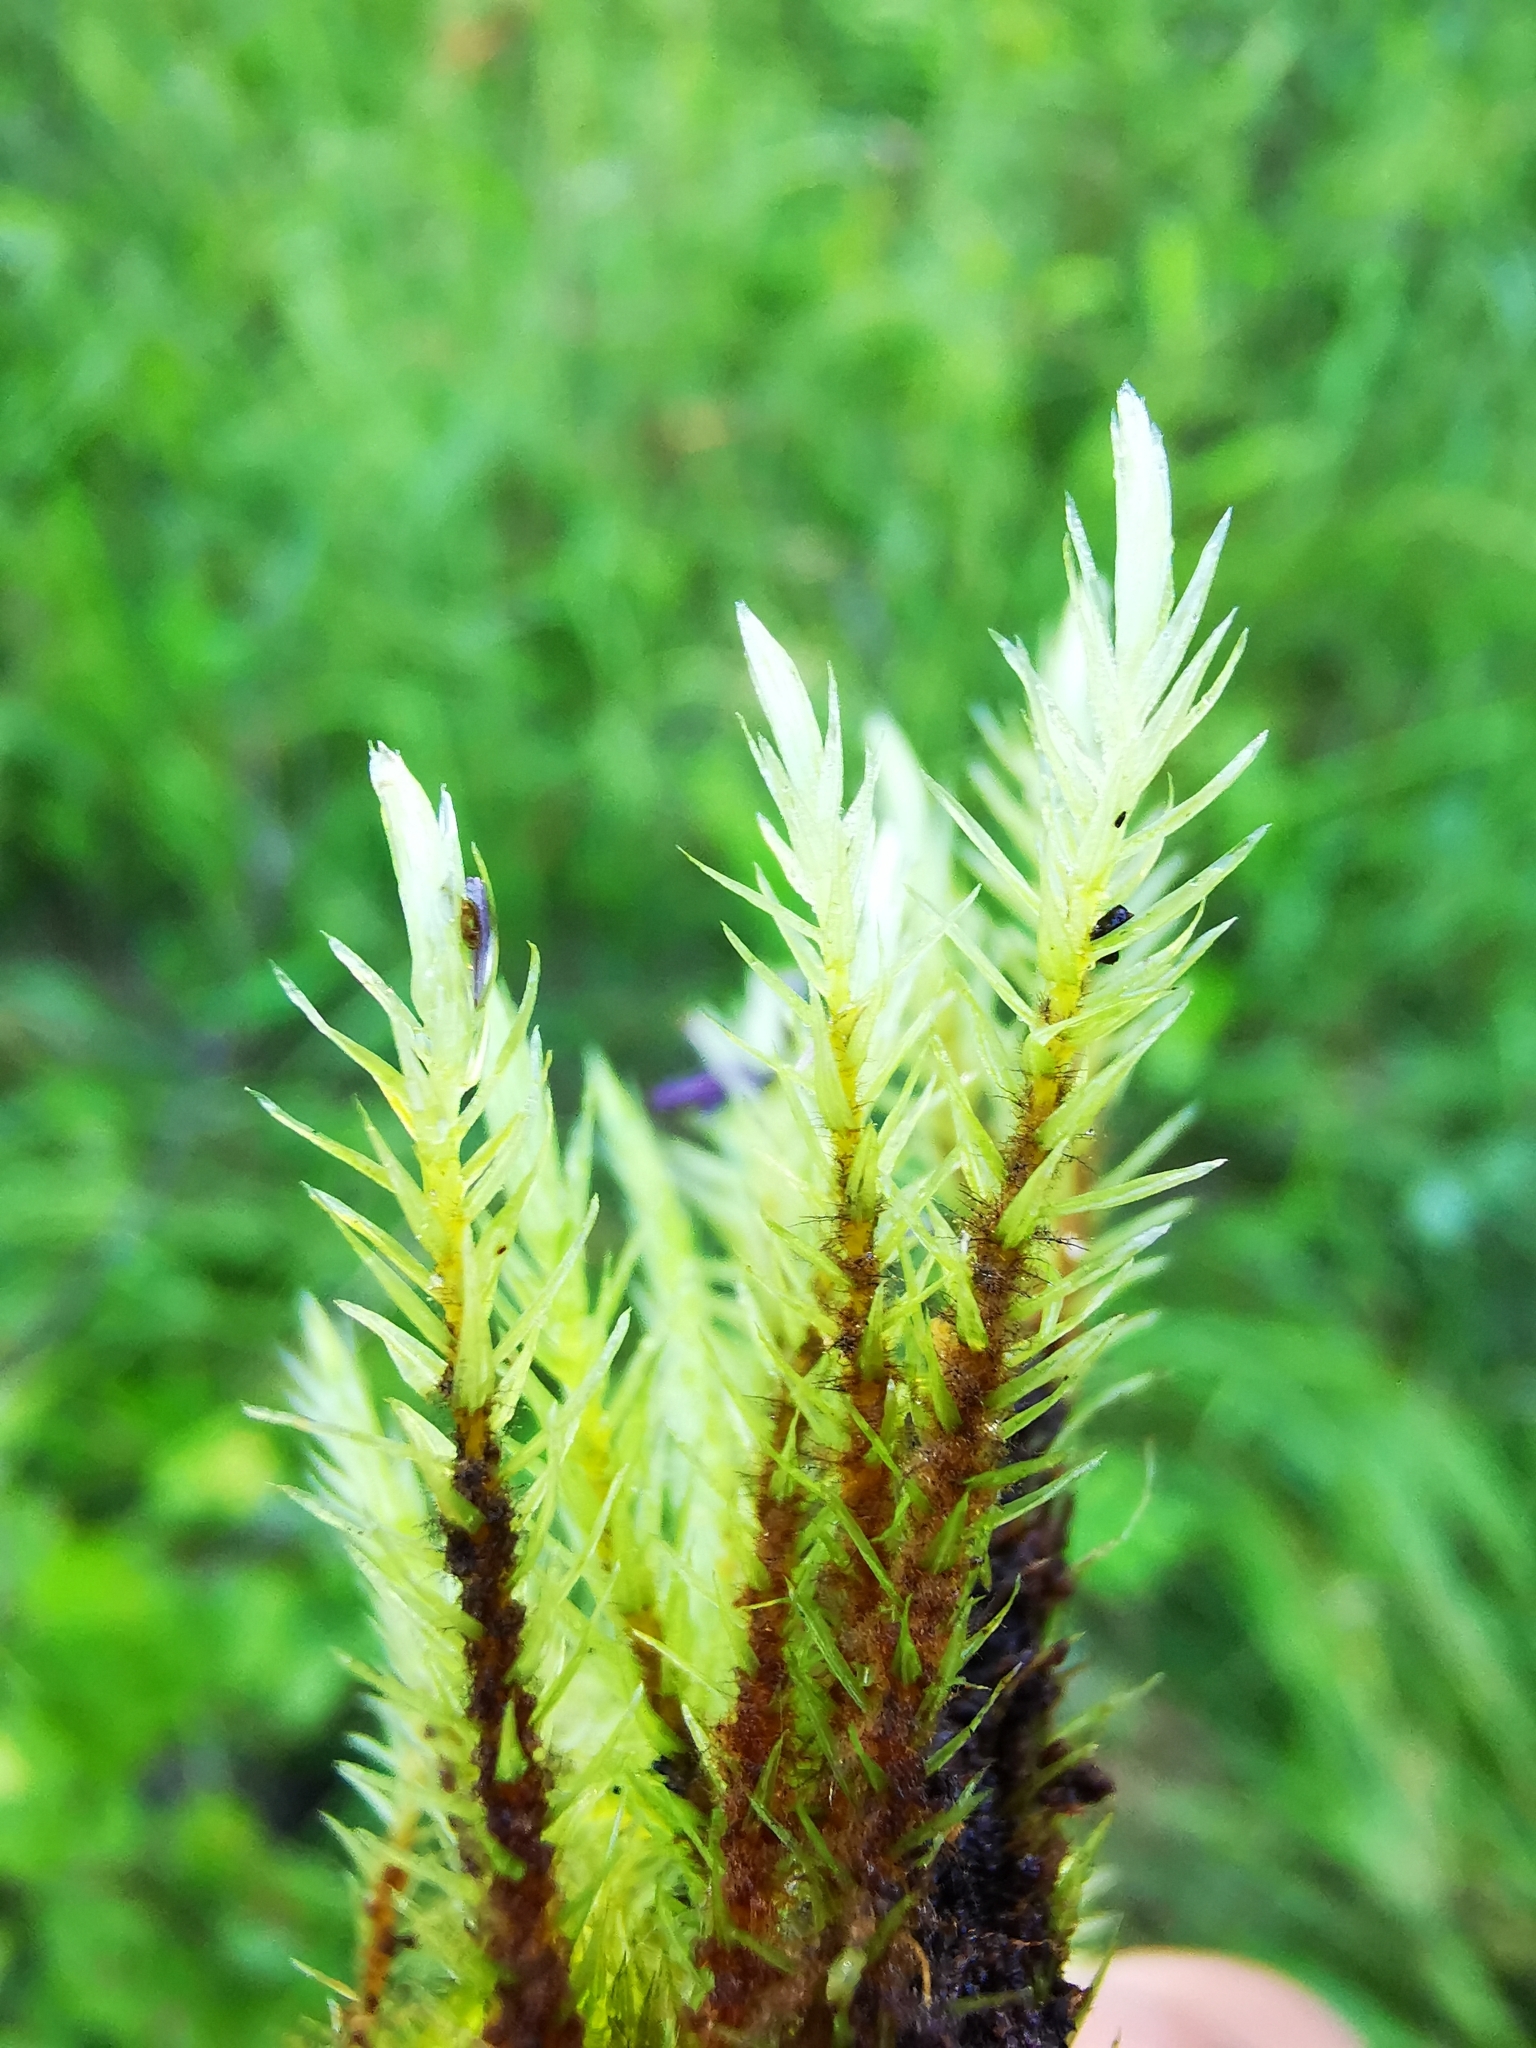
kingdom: Plantae
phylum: Bryophyta
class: Bryopsida
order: Aulacomniales
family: Aulacomniaceae
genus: Aulacomnium
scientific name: Aulacomnium palustre
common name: Bog groove-moss
